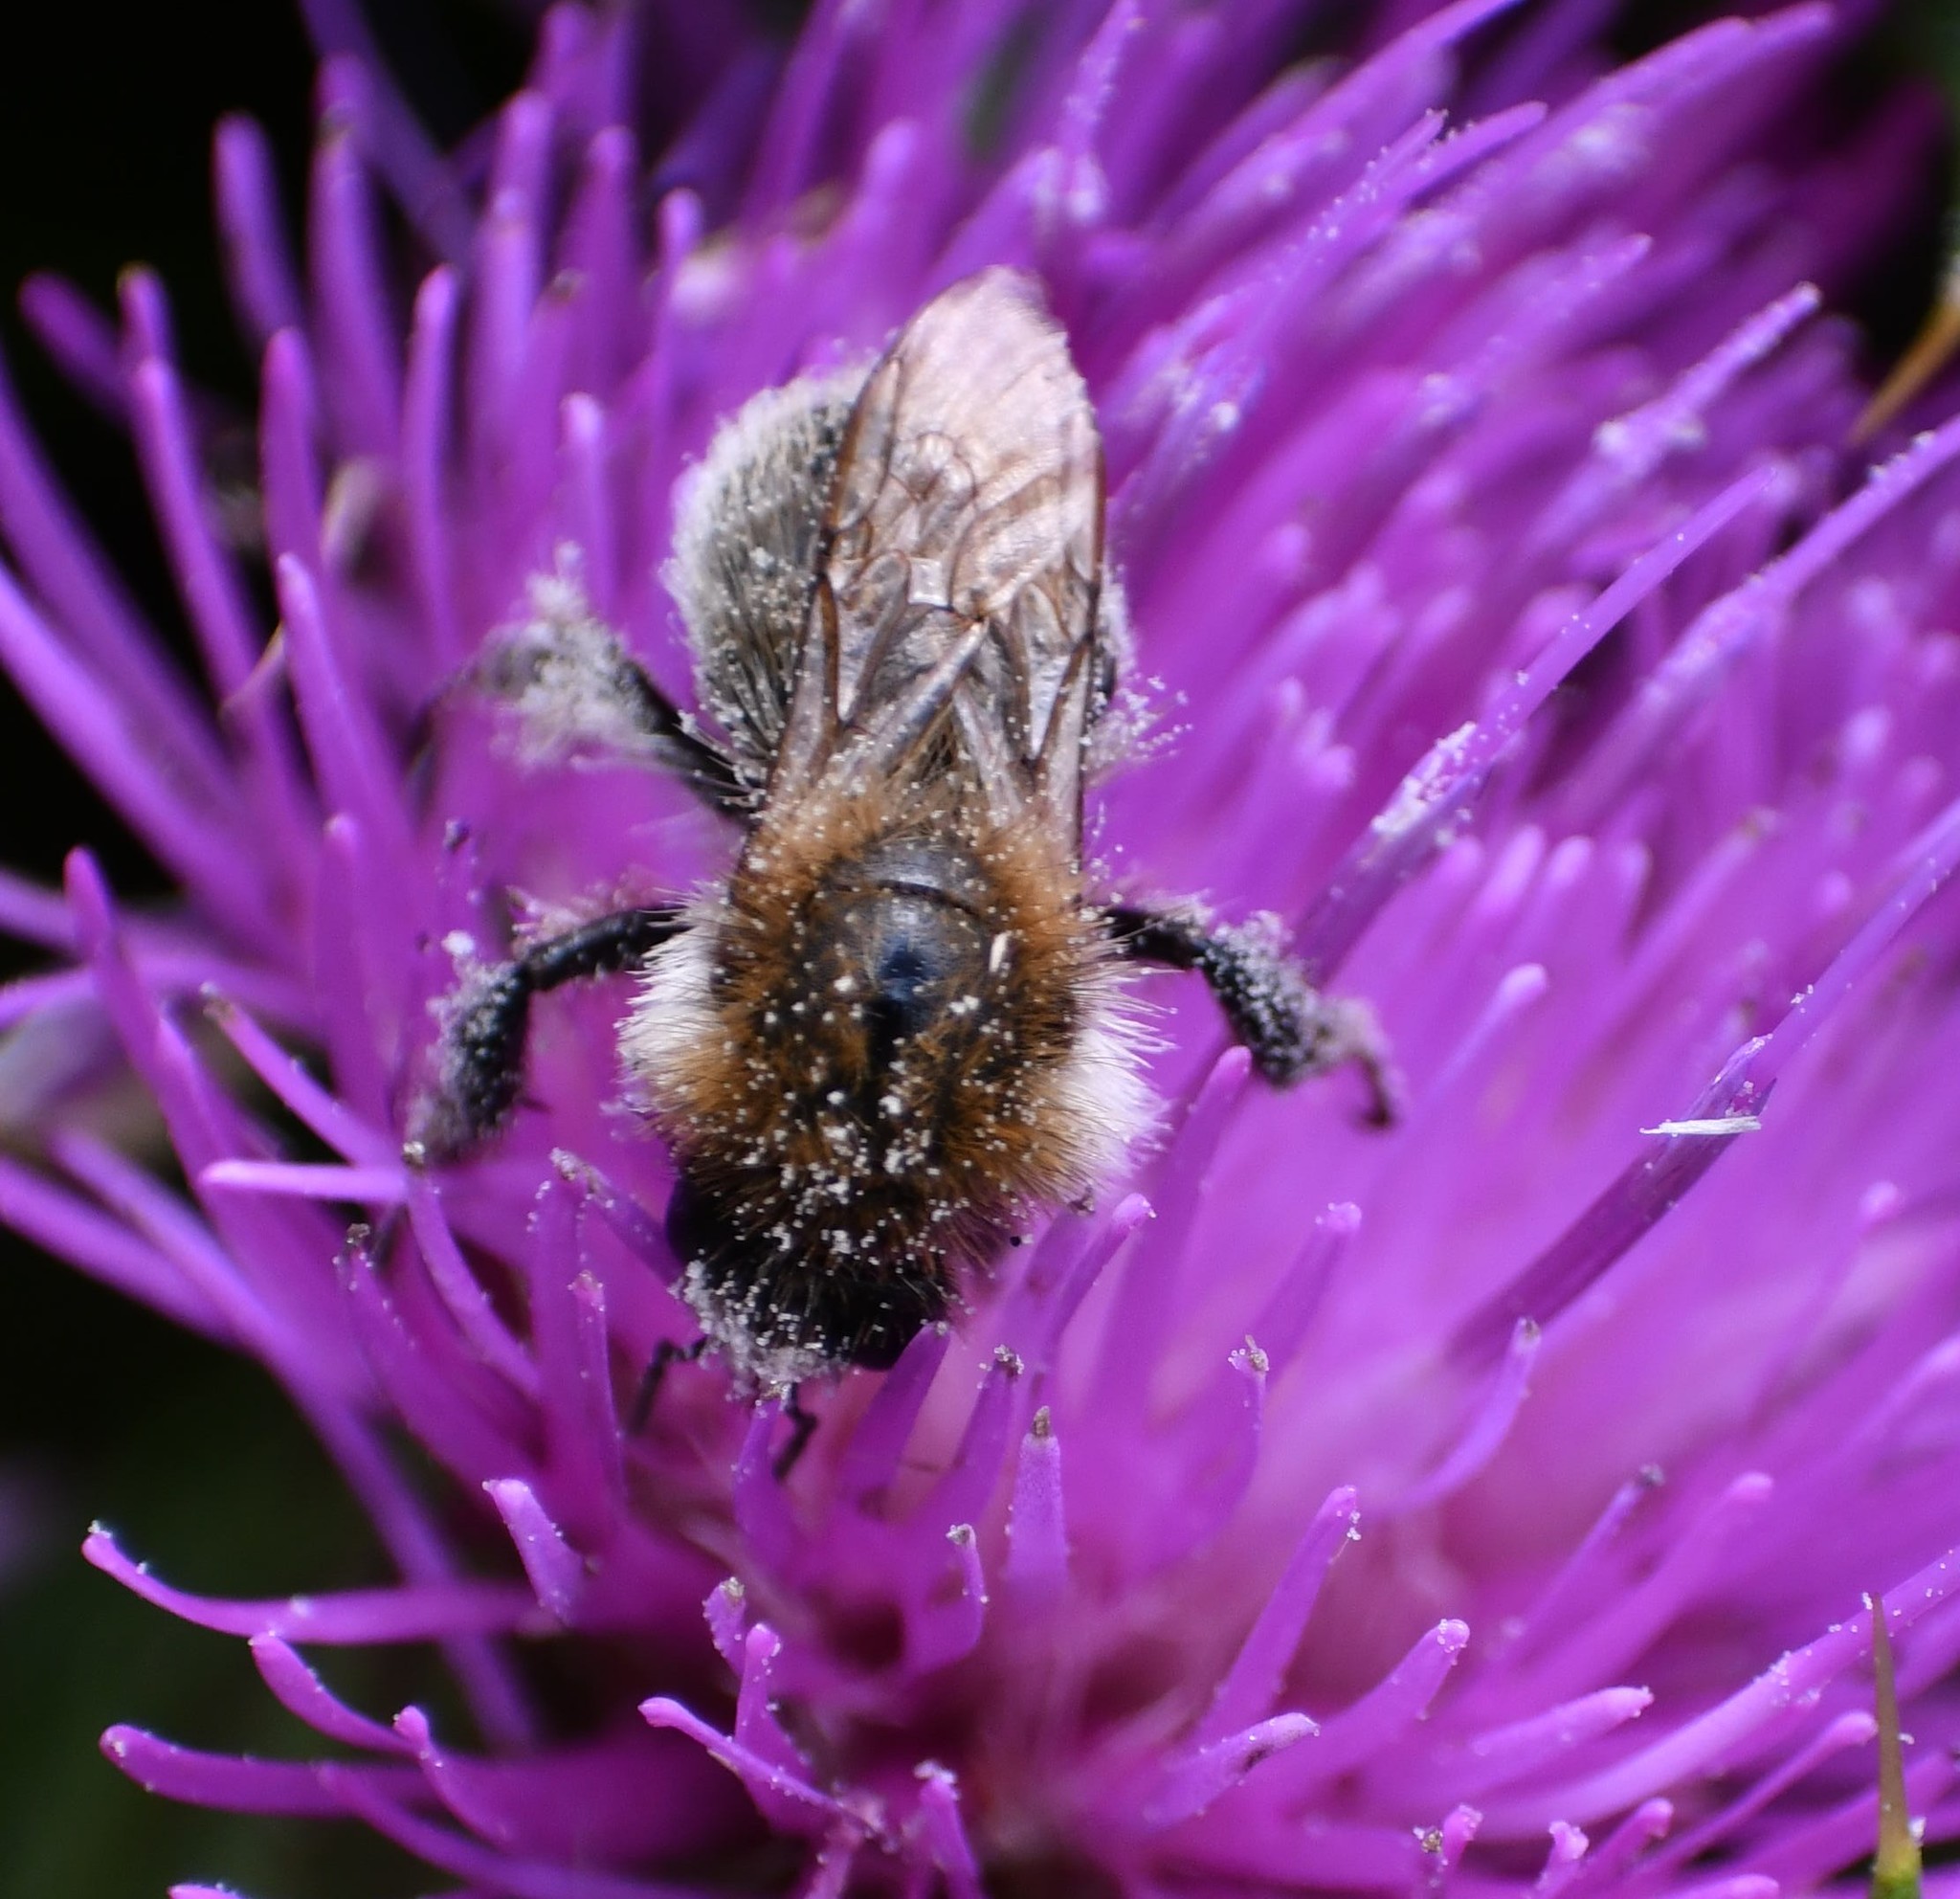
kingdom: Animalia
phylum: Arthropoda
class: Insecta
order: Hymenoptera
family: Apidae
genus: Bombus
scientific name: Bombus humilis
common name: Brown-banded carder-bee
